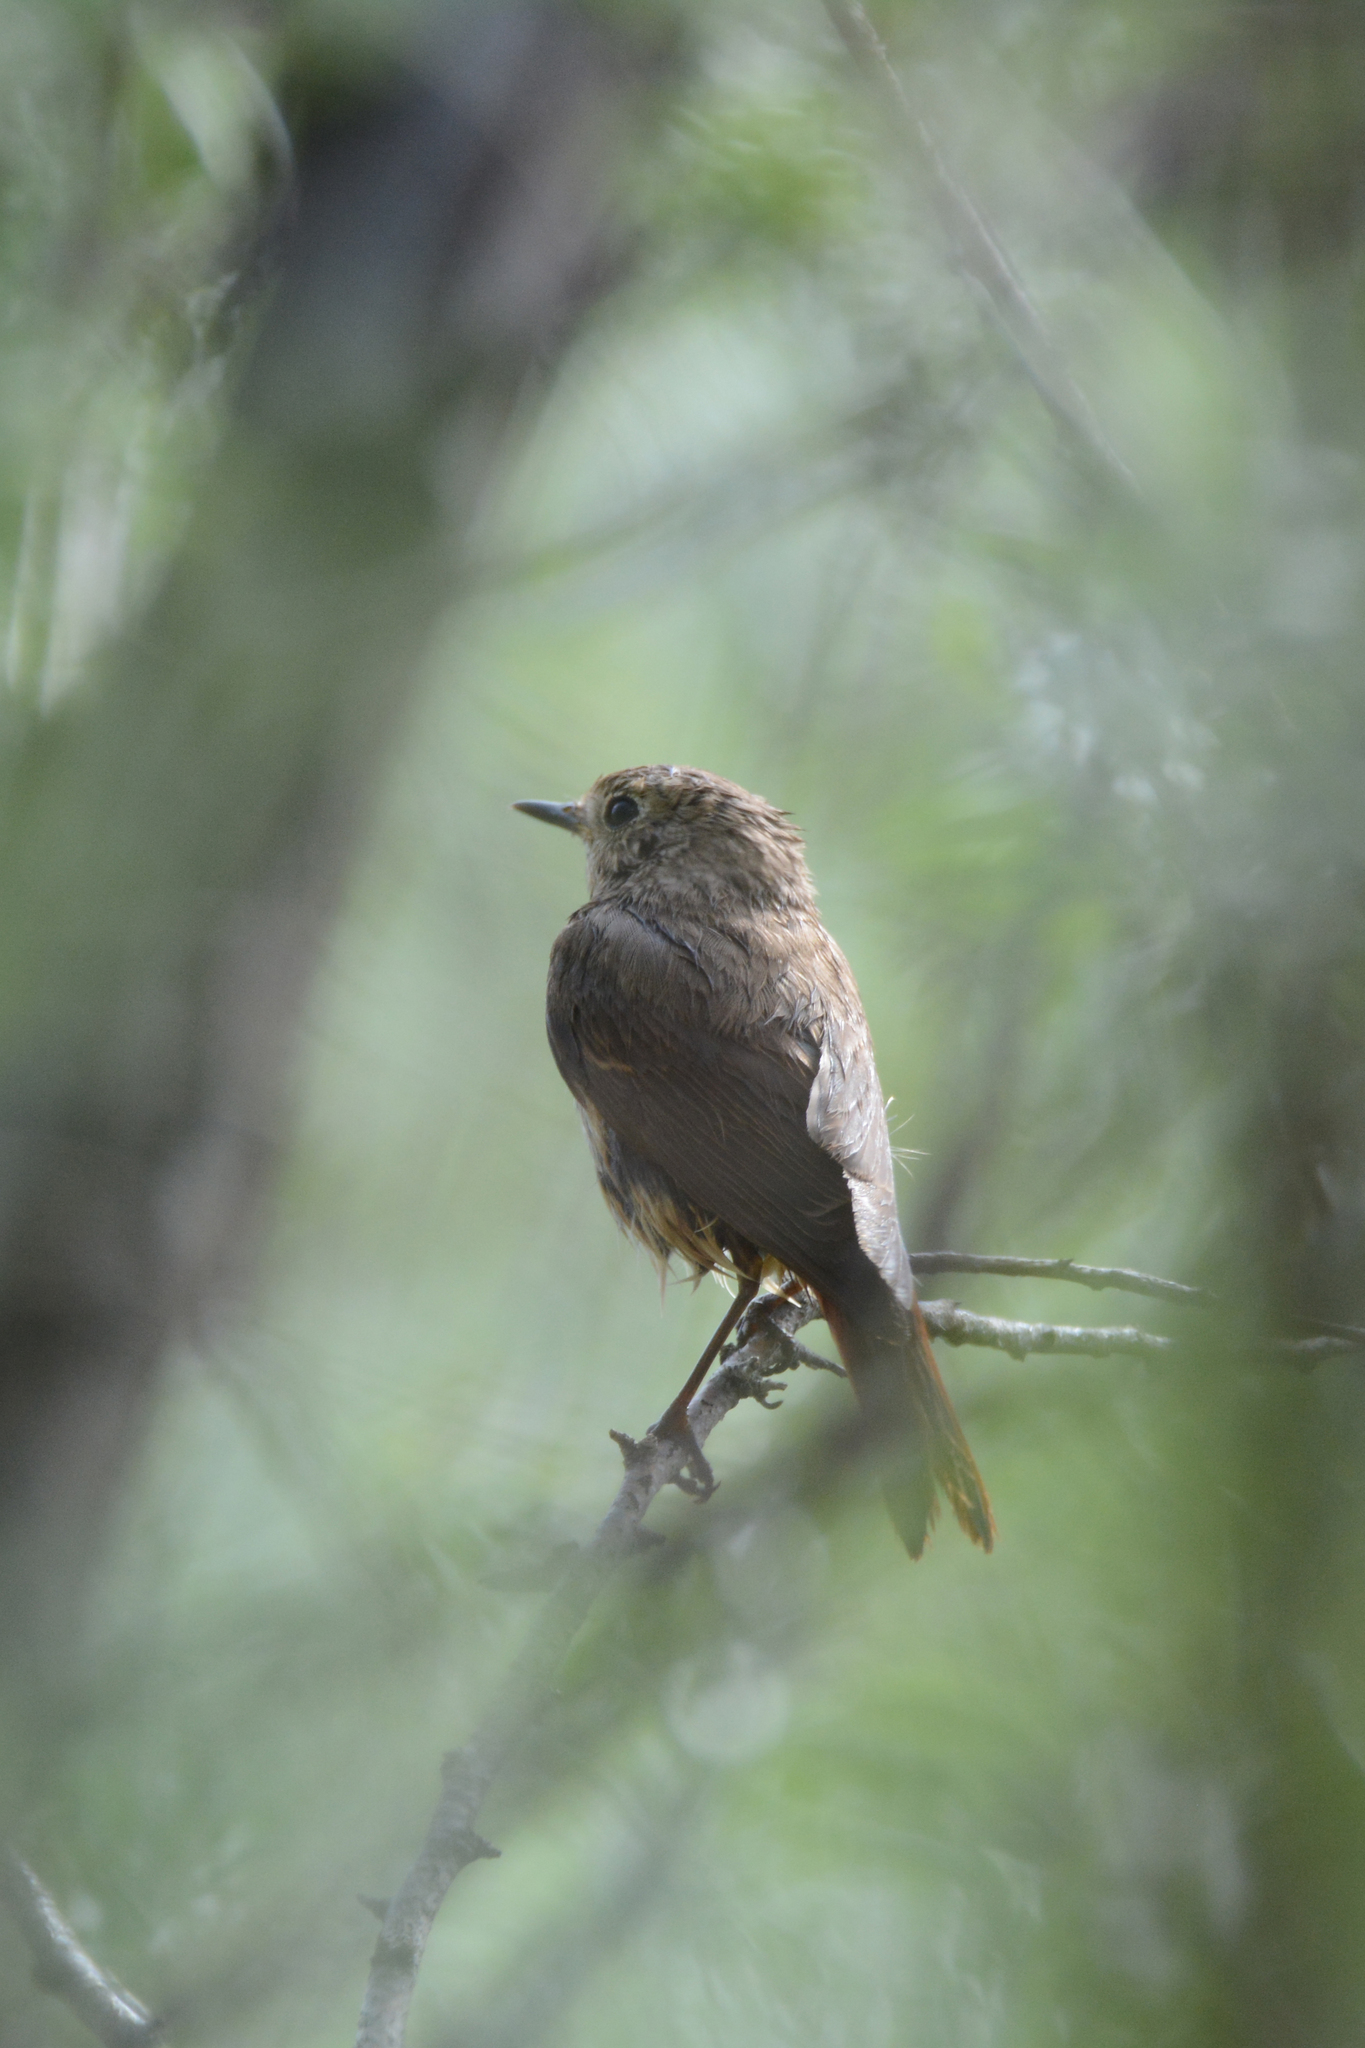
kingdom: Animalia
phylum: Chordata
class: Aves
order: Passeriformes
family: Muscicapidae
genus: Phoenicurus
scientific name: Phoenicurus phoenicurus
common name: Common redstart
